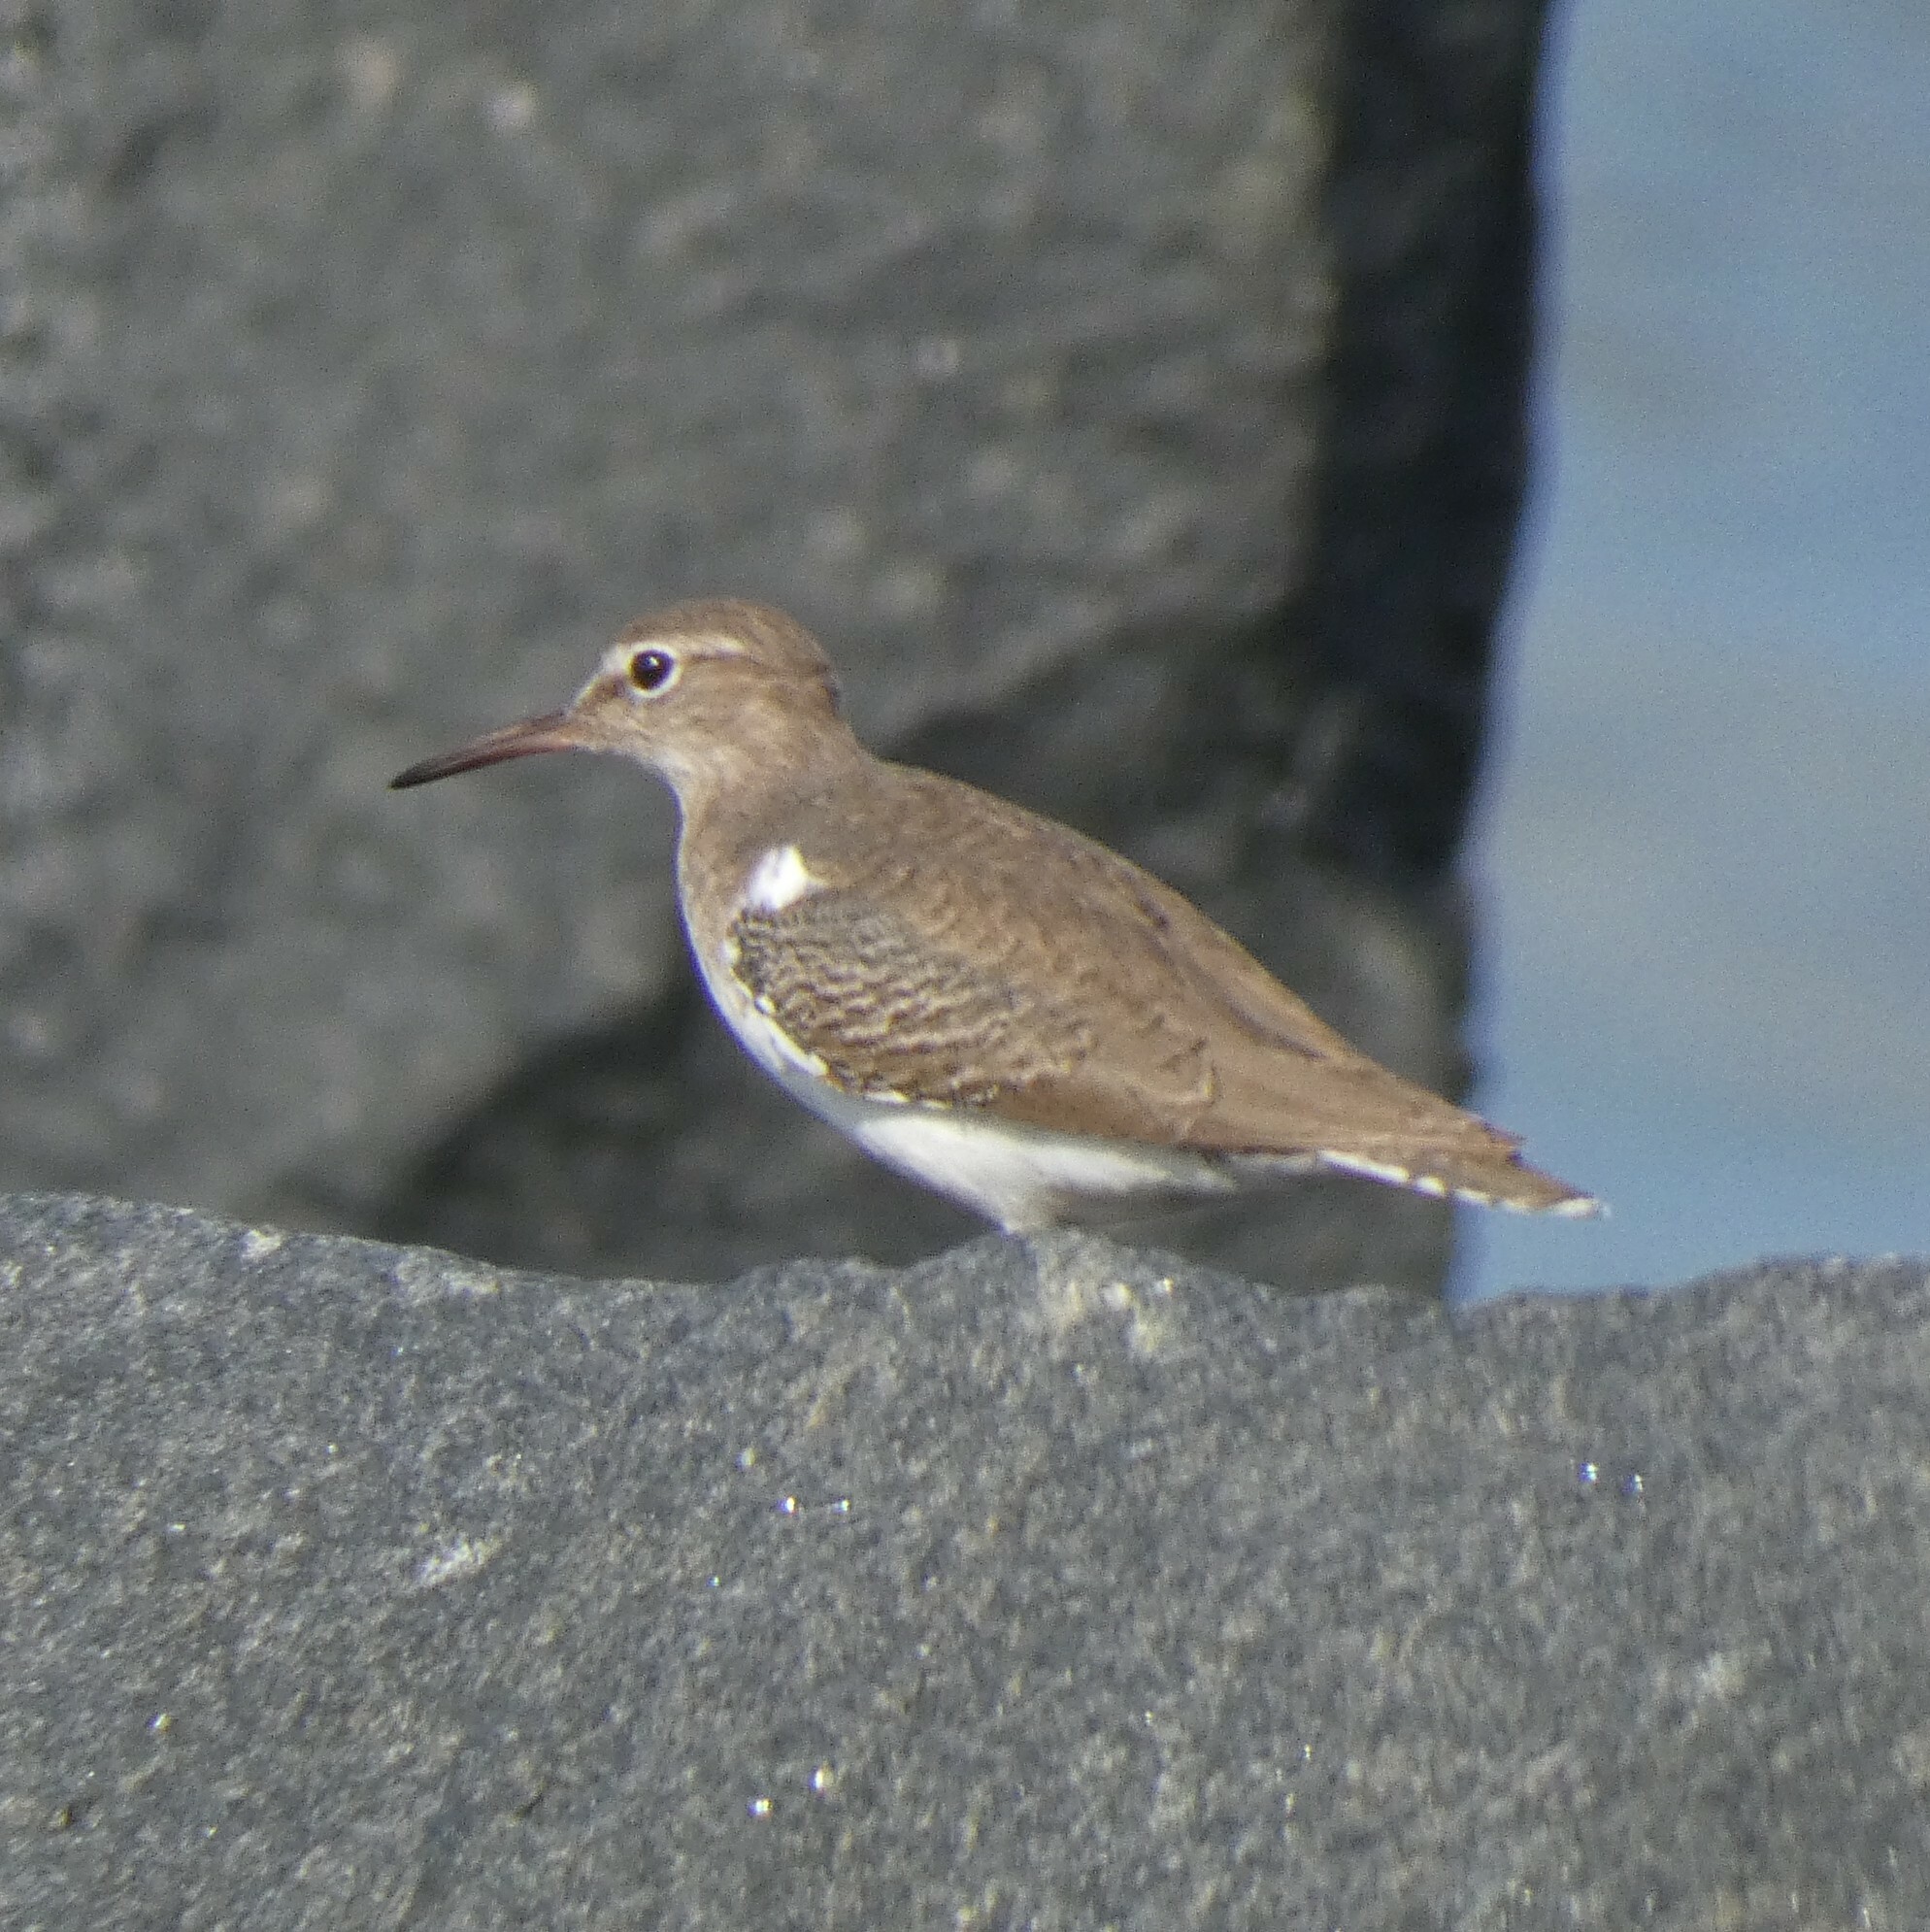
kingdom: Animalia
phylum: Chordata
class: Aves
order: Charadriiformes
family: Scolopacidae
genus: Actitis
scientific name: Actitis macularius
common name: Spotted sandpiper
